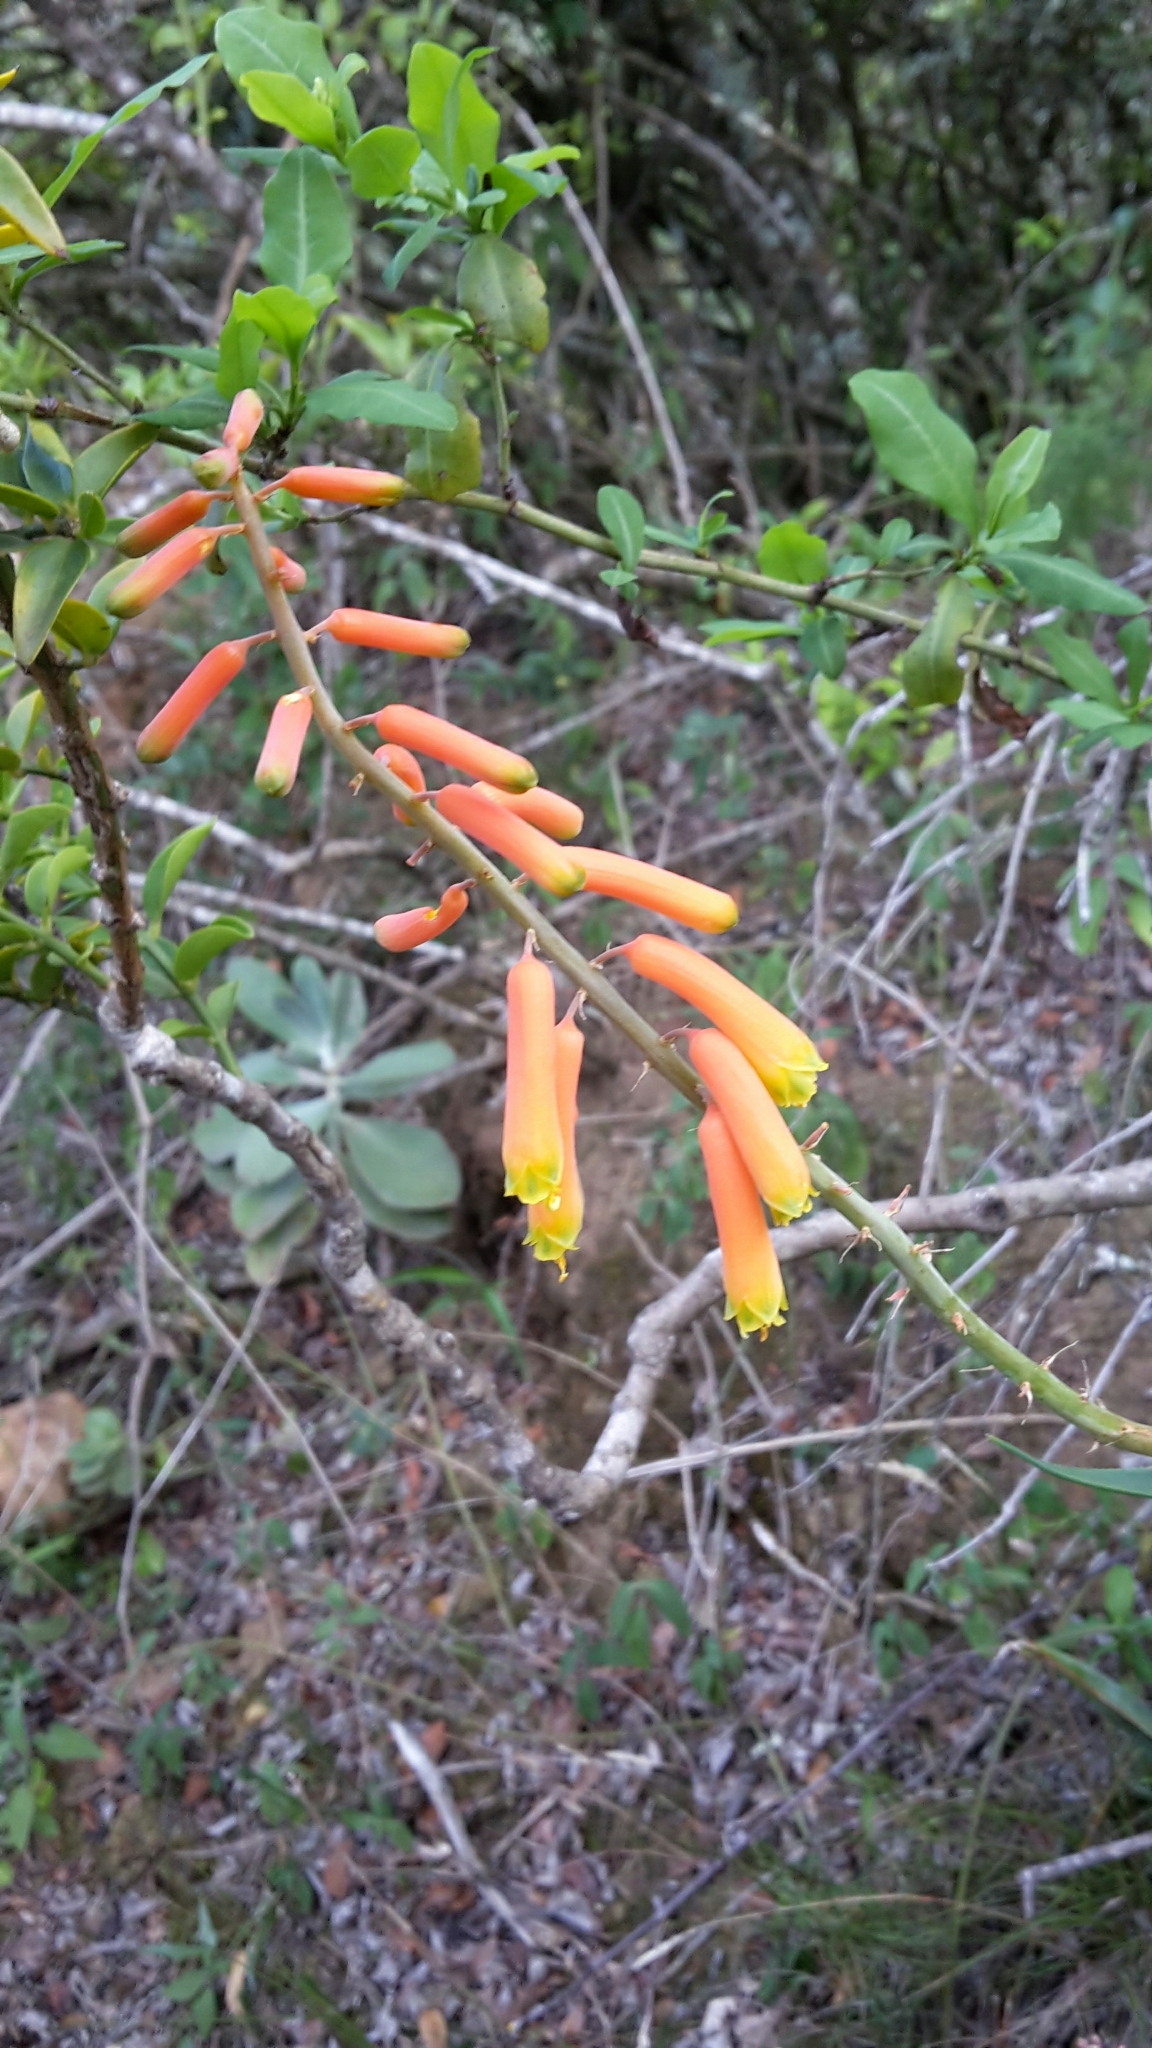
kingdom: Plantae
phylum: Tracheophyta
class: Liliopsida
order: Asparagales
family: Asphodelaceae
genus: Aloiampelos
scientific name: Aloiampelos ciliaris
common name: Climbing aloe
